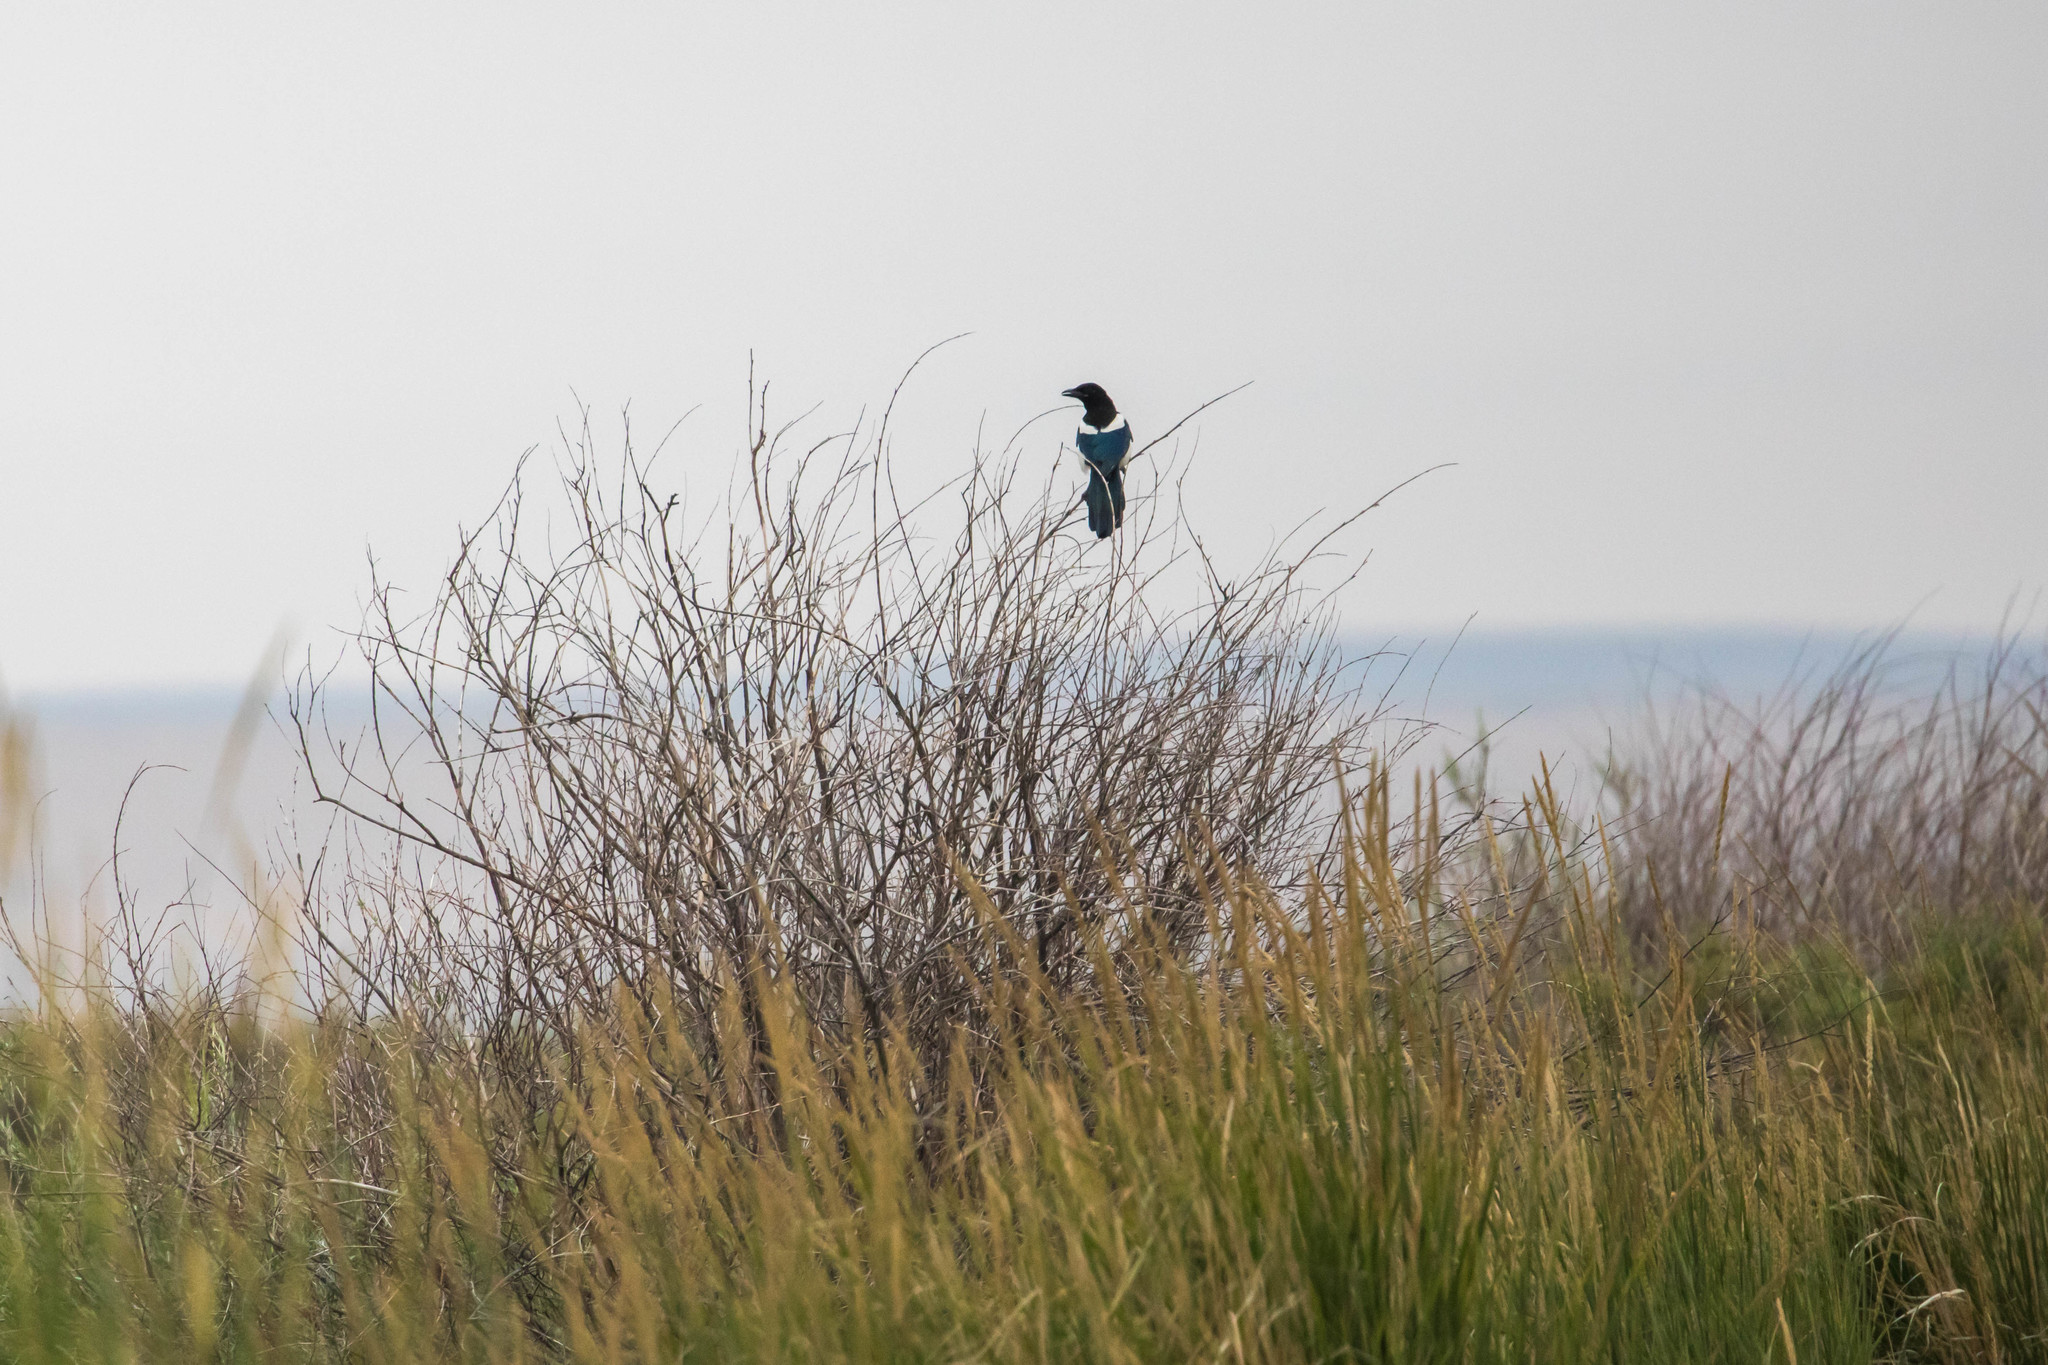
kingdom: Animalia
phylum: Chordata
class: Aves
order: Passeriformes
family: Corvidae
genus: Pica
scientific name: Pica hudsonia
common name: Black-billed magpie
